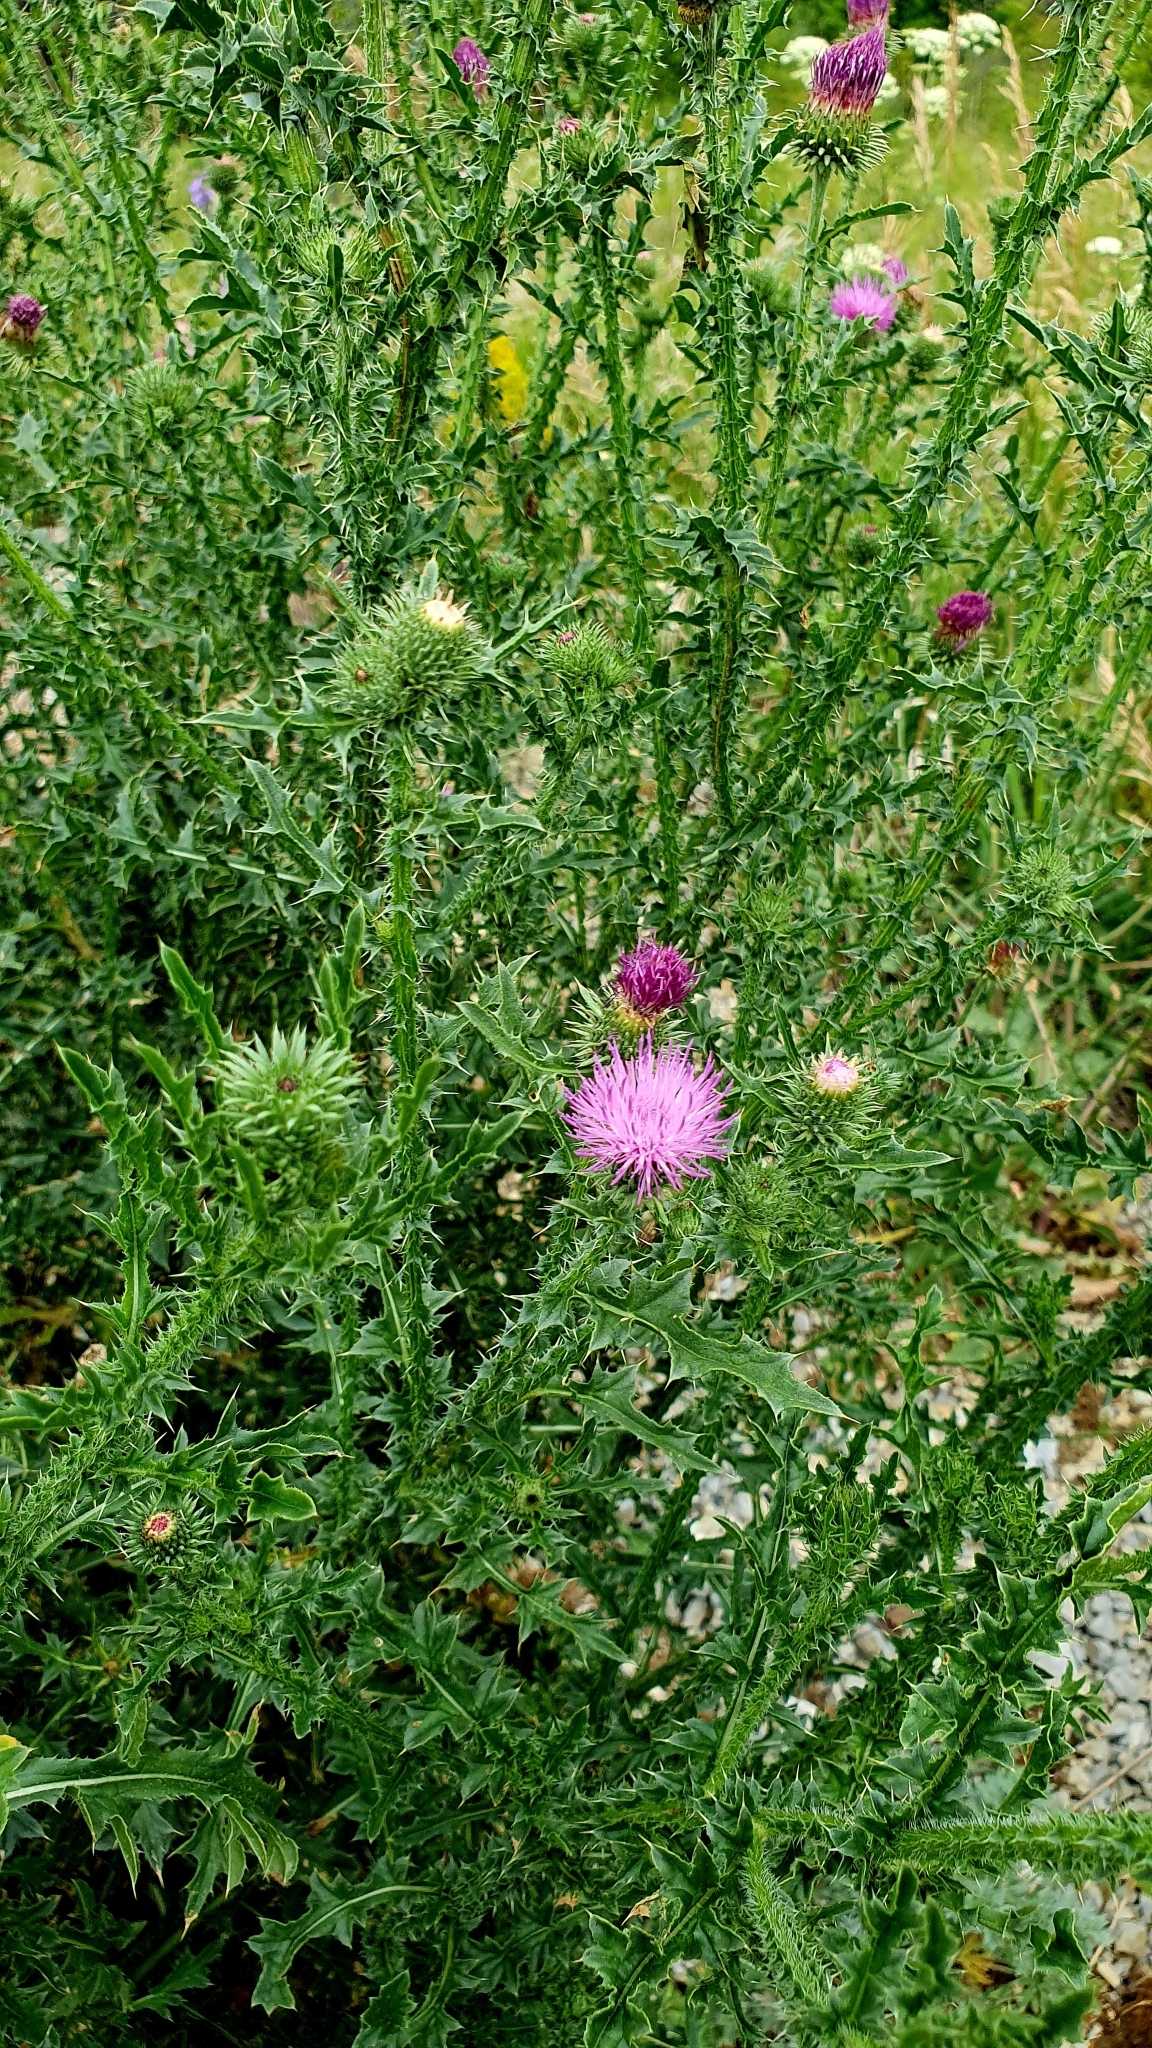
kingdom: Plantae
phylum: Tracheophyta
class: Magnoliopsida
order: Asterales
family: Asteraceae
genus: Carduus
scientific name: Carduus acanthoides
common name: Plumeless thistle
